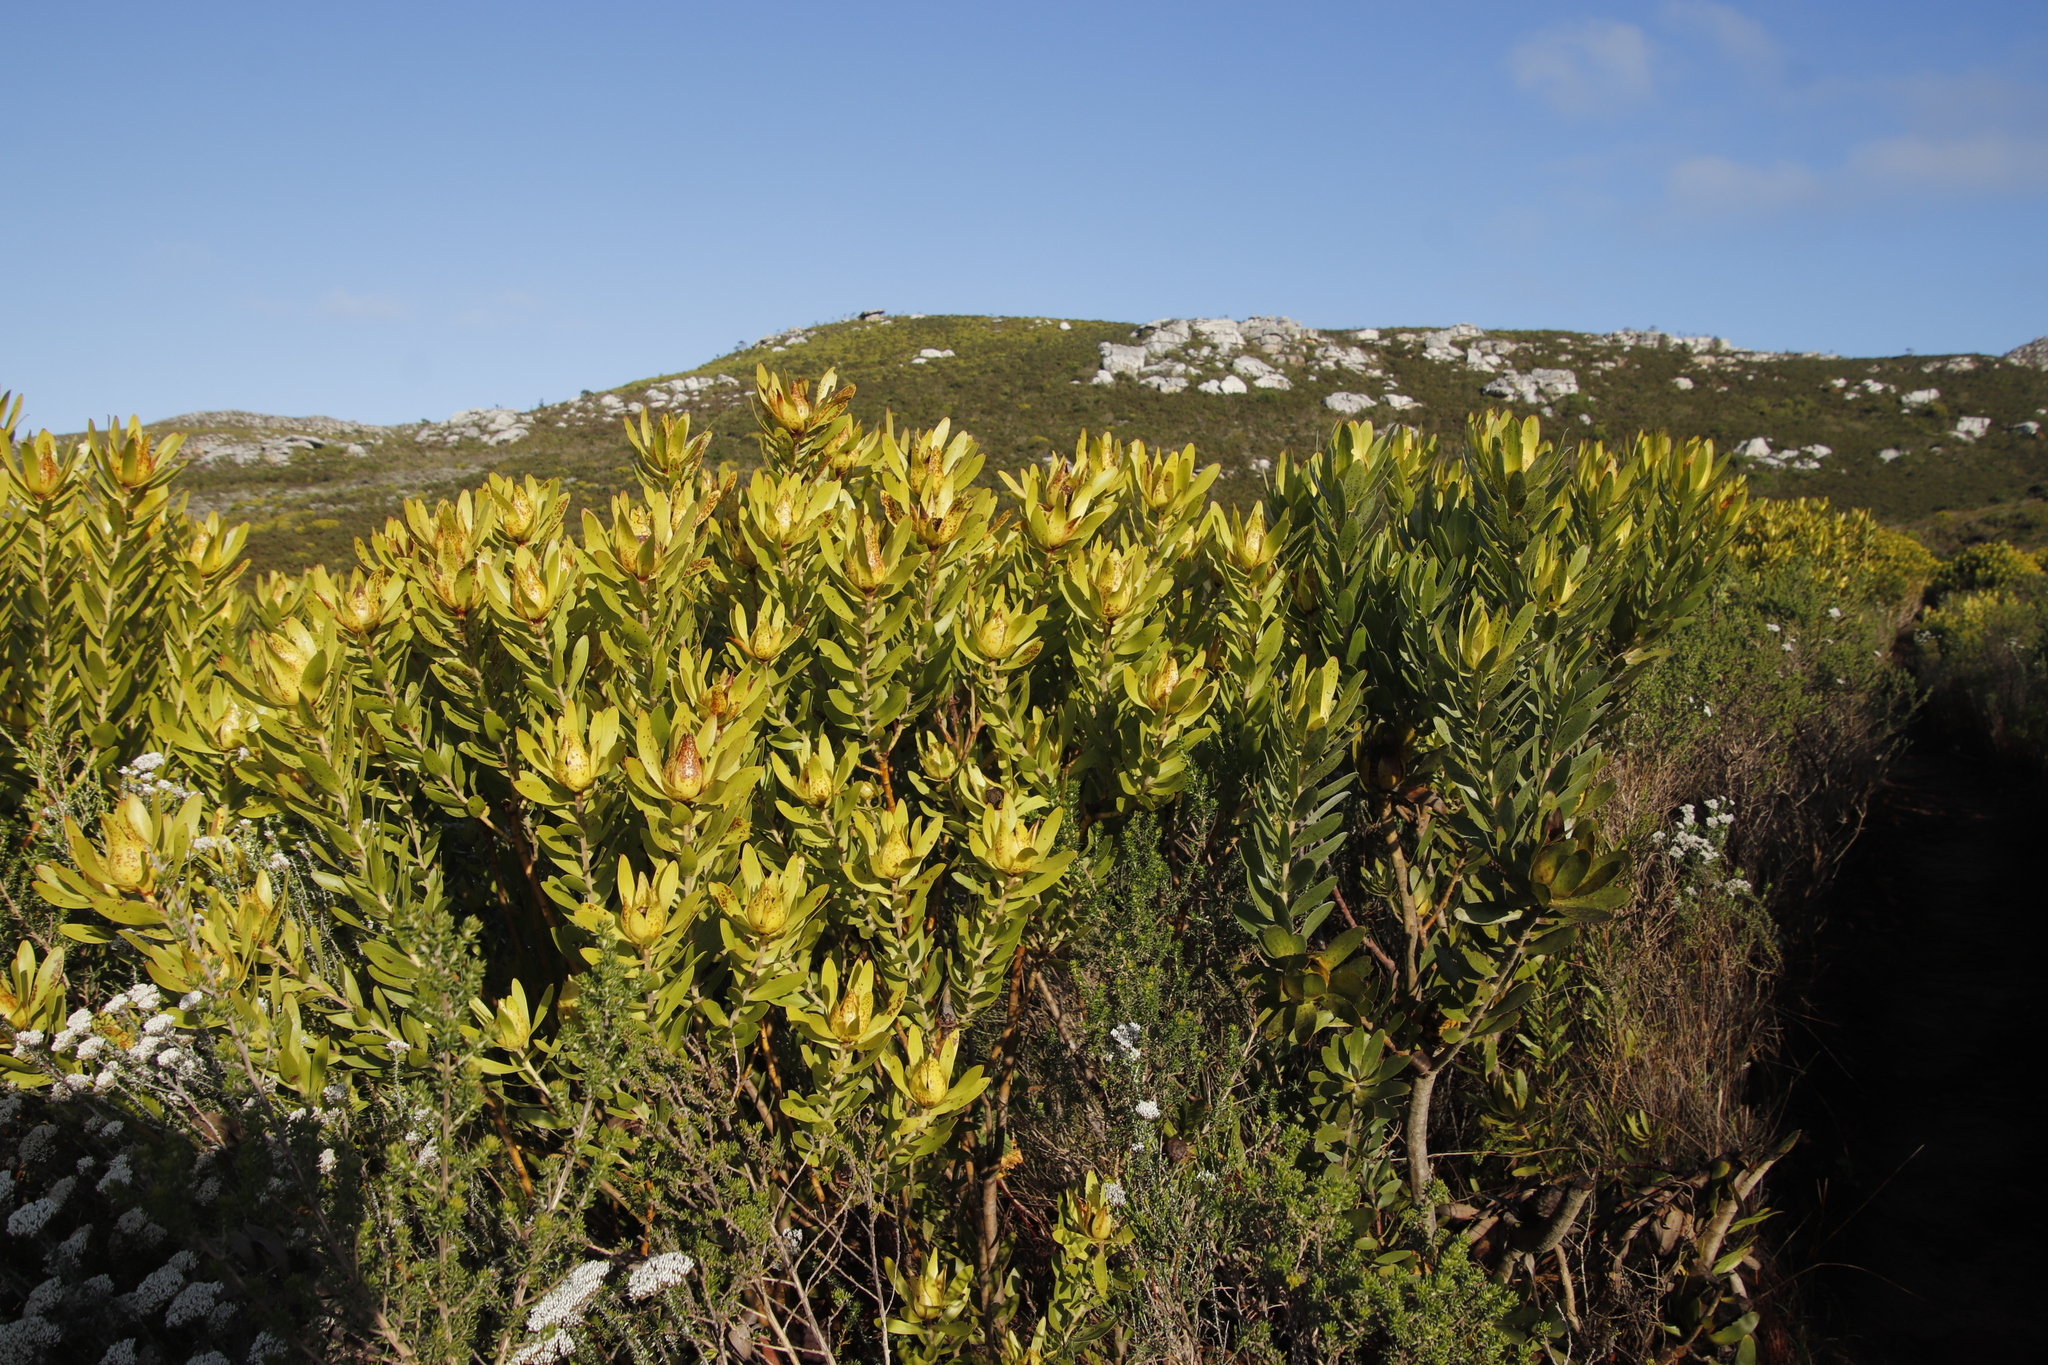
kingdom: Plantae
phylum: Tracheophyta
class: Magnoliopsida
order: Proteales
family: Proteaceae
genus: Leucadendron
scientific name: Leucadendron laureolum
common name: Golden sunshinebush
